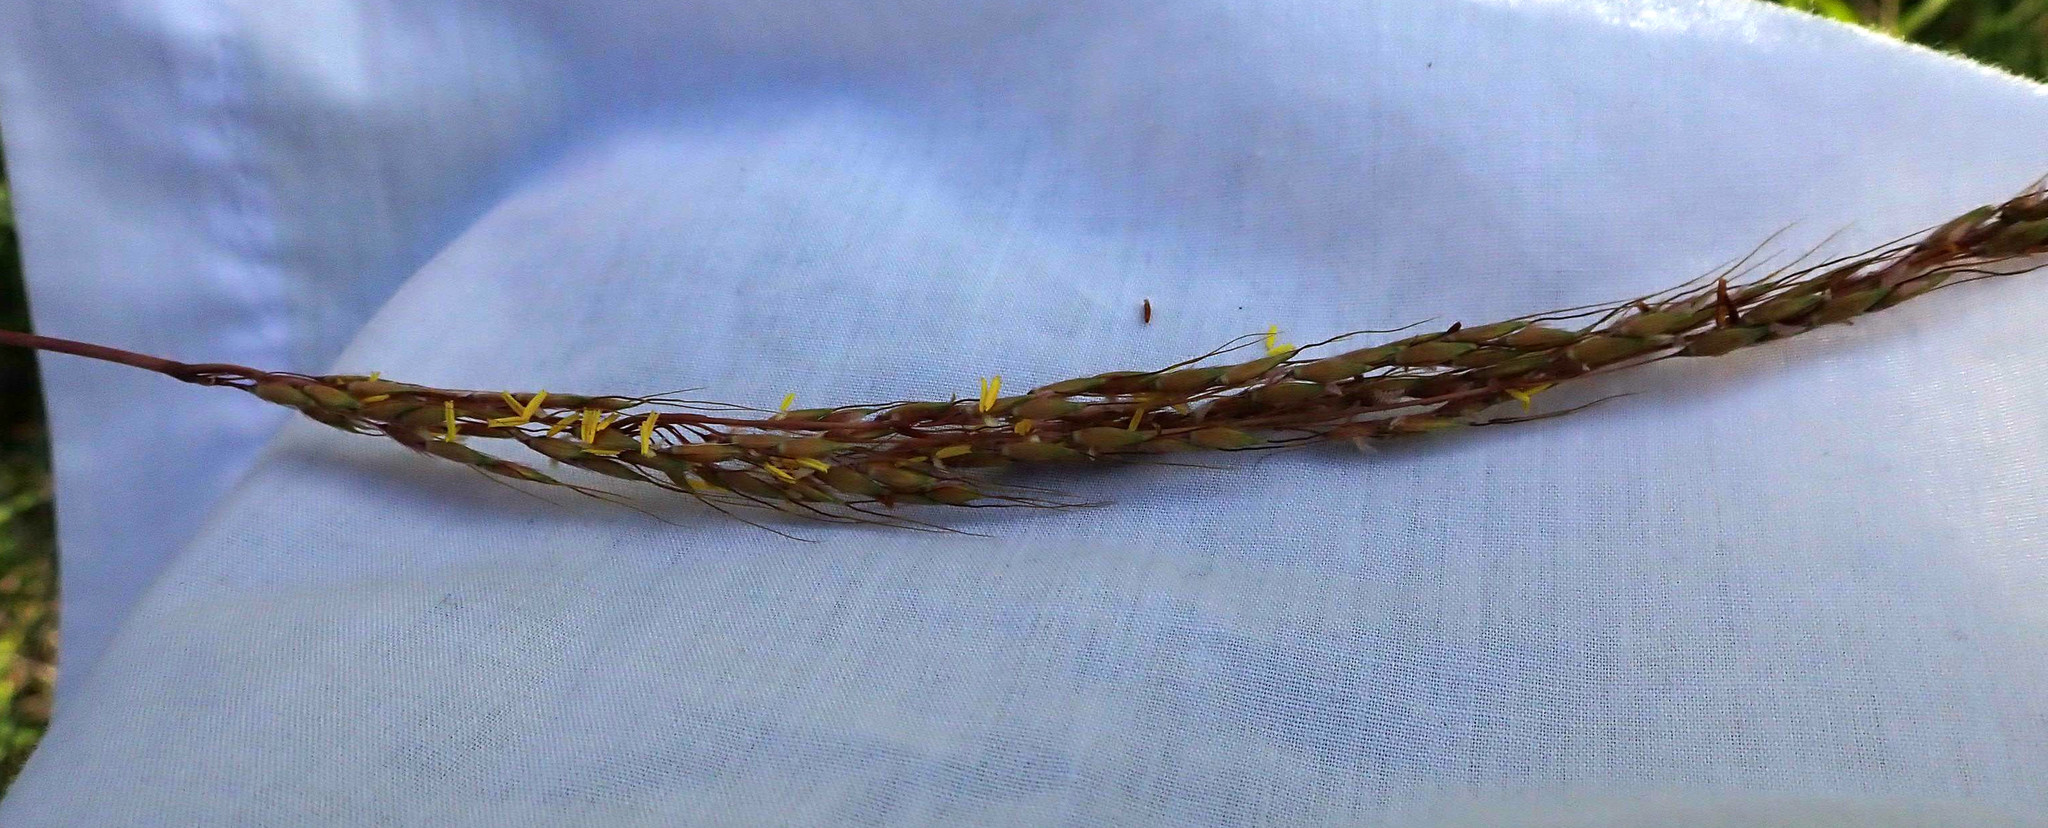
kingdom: Plantae
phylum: Tracheophyta
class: Liliopsida
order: Poales
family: Poaceae
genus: Sorghastrum
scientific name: Sorghastrum nutans
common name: Indian grass
